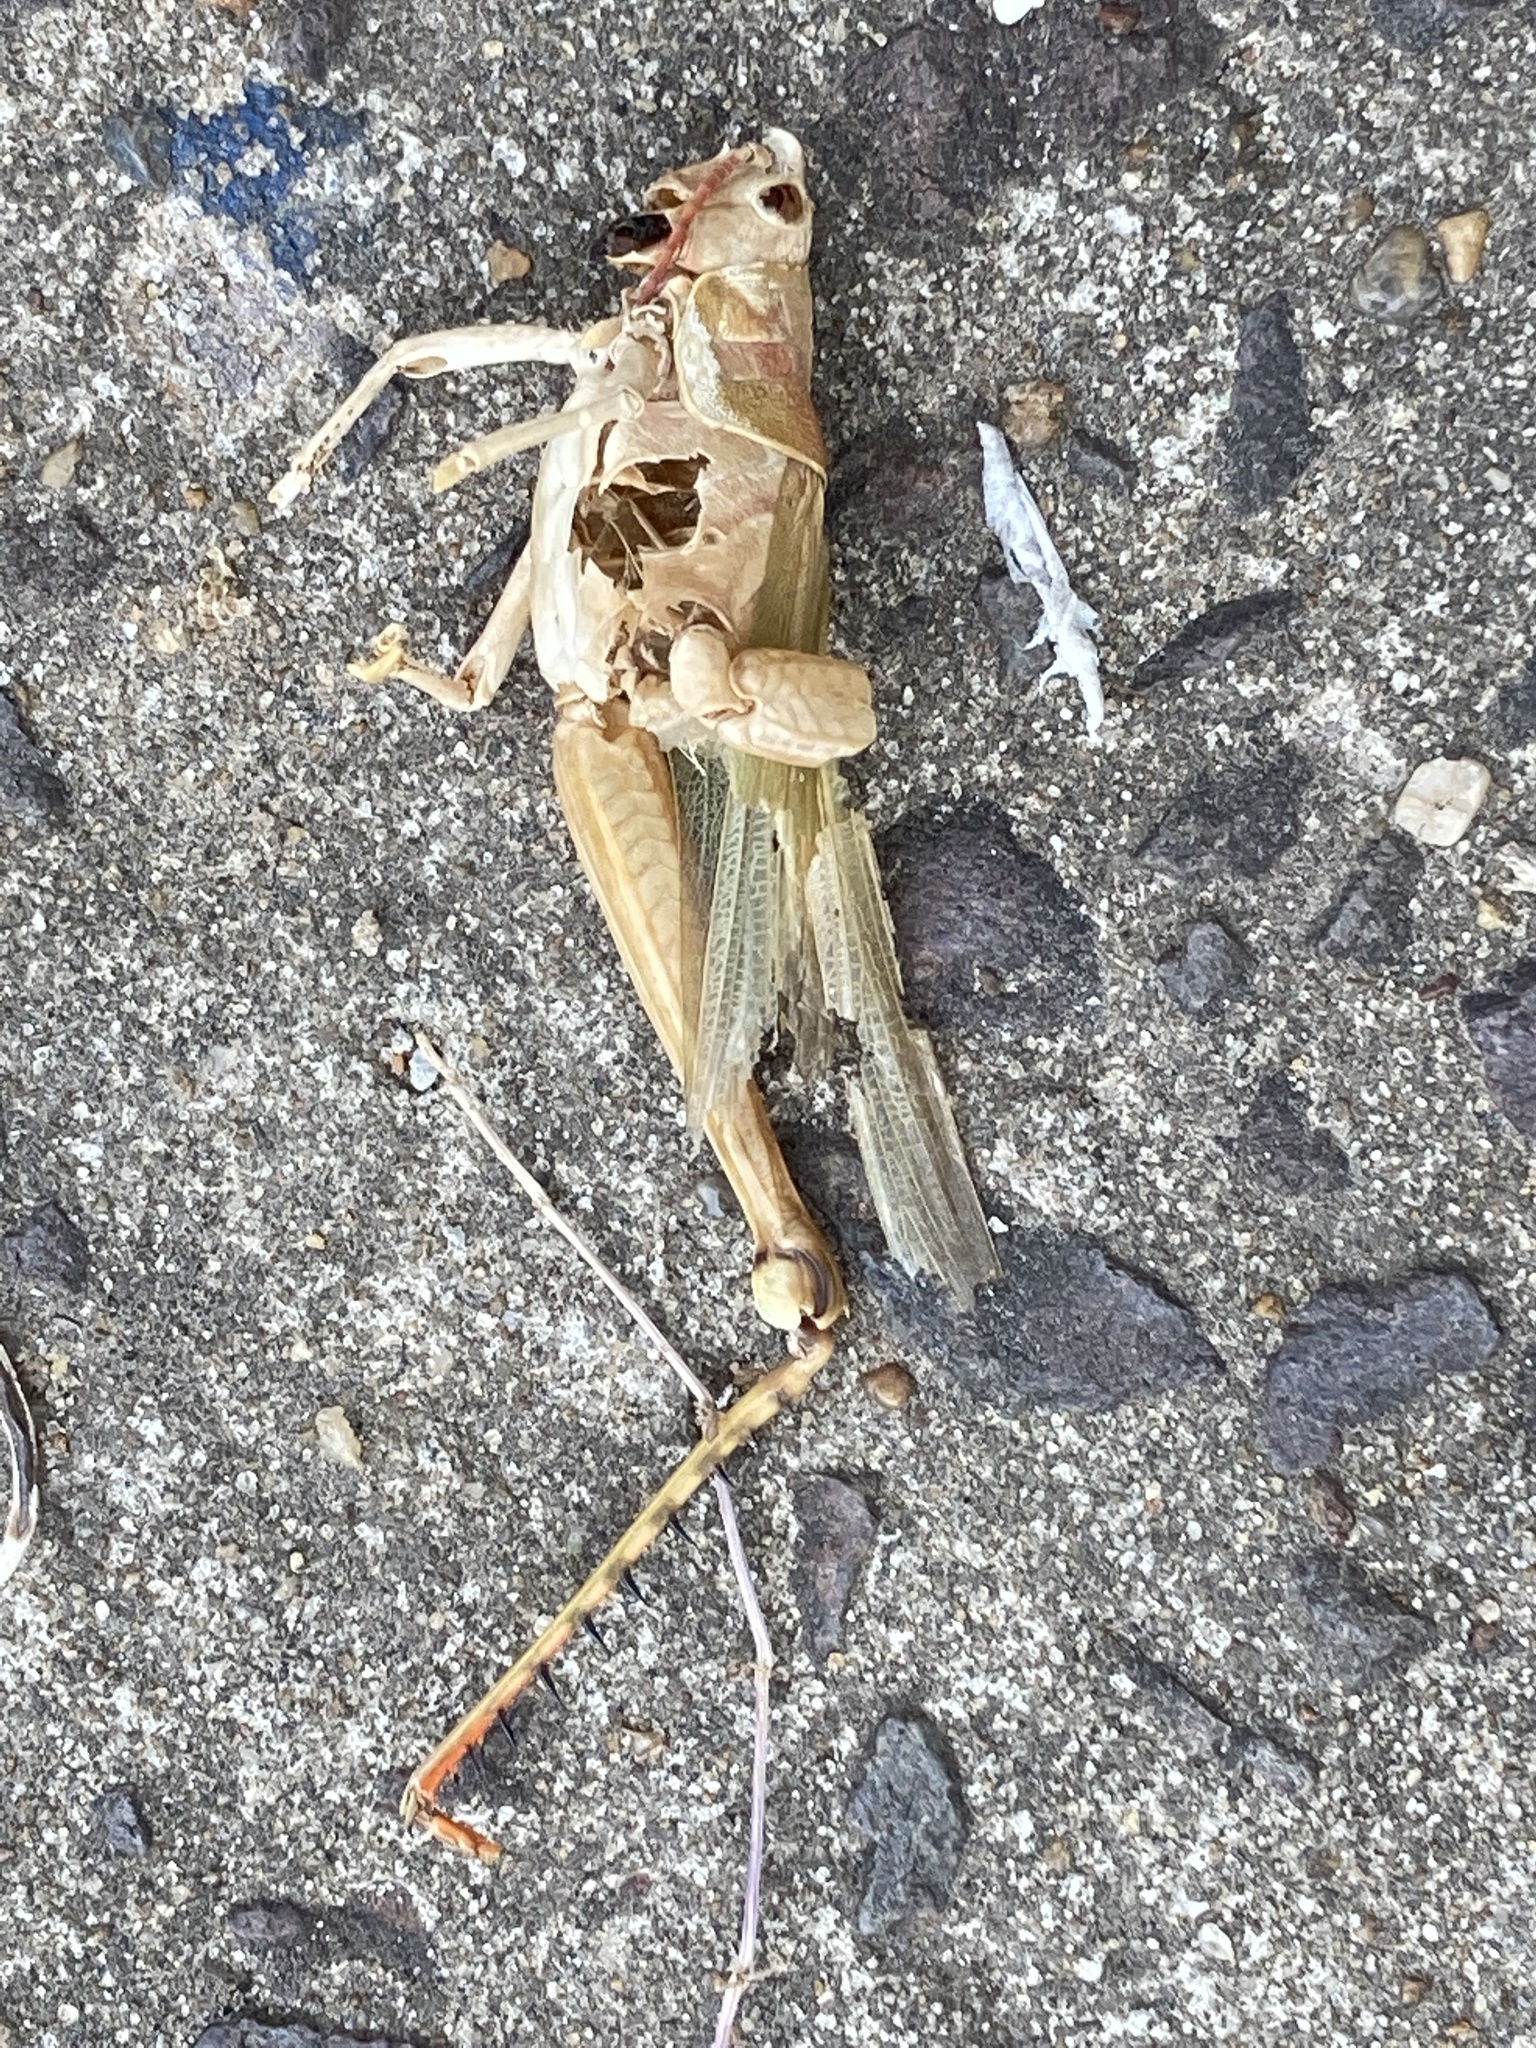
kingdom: Animalia
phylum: Arthropoda
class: Insecta
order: Orthoptera
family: Romaleidae
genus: Coryacris
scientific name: Coryacris angustipennis
